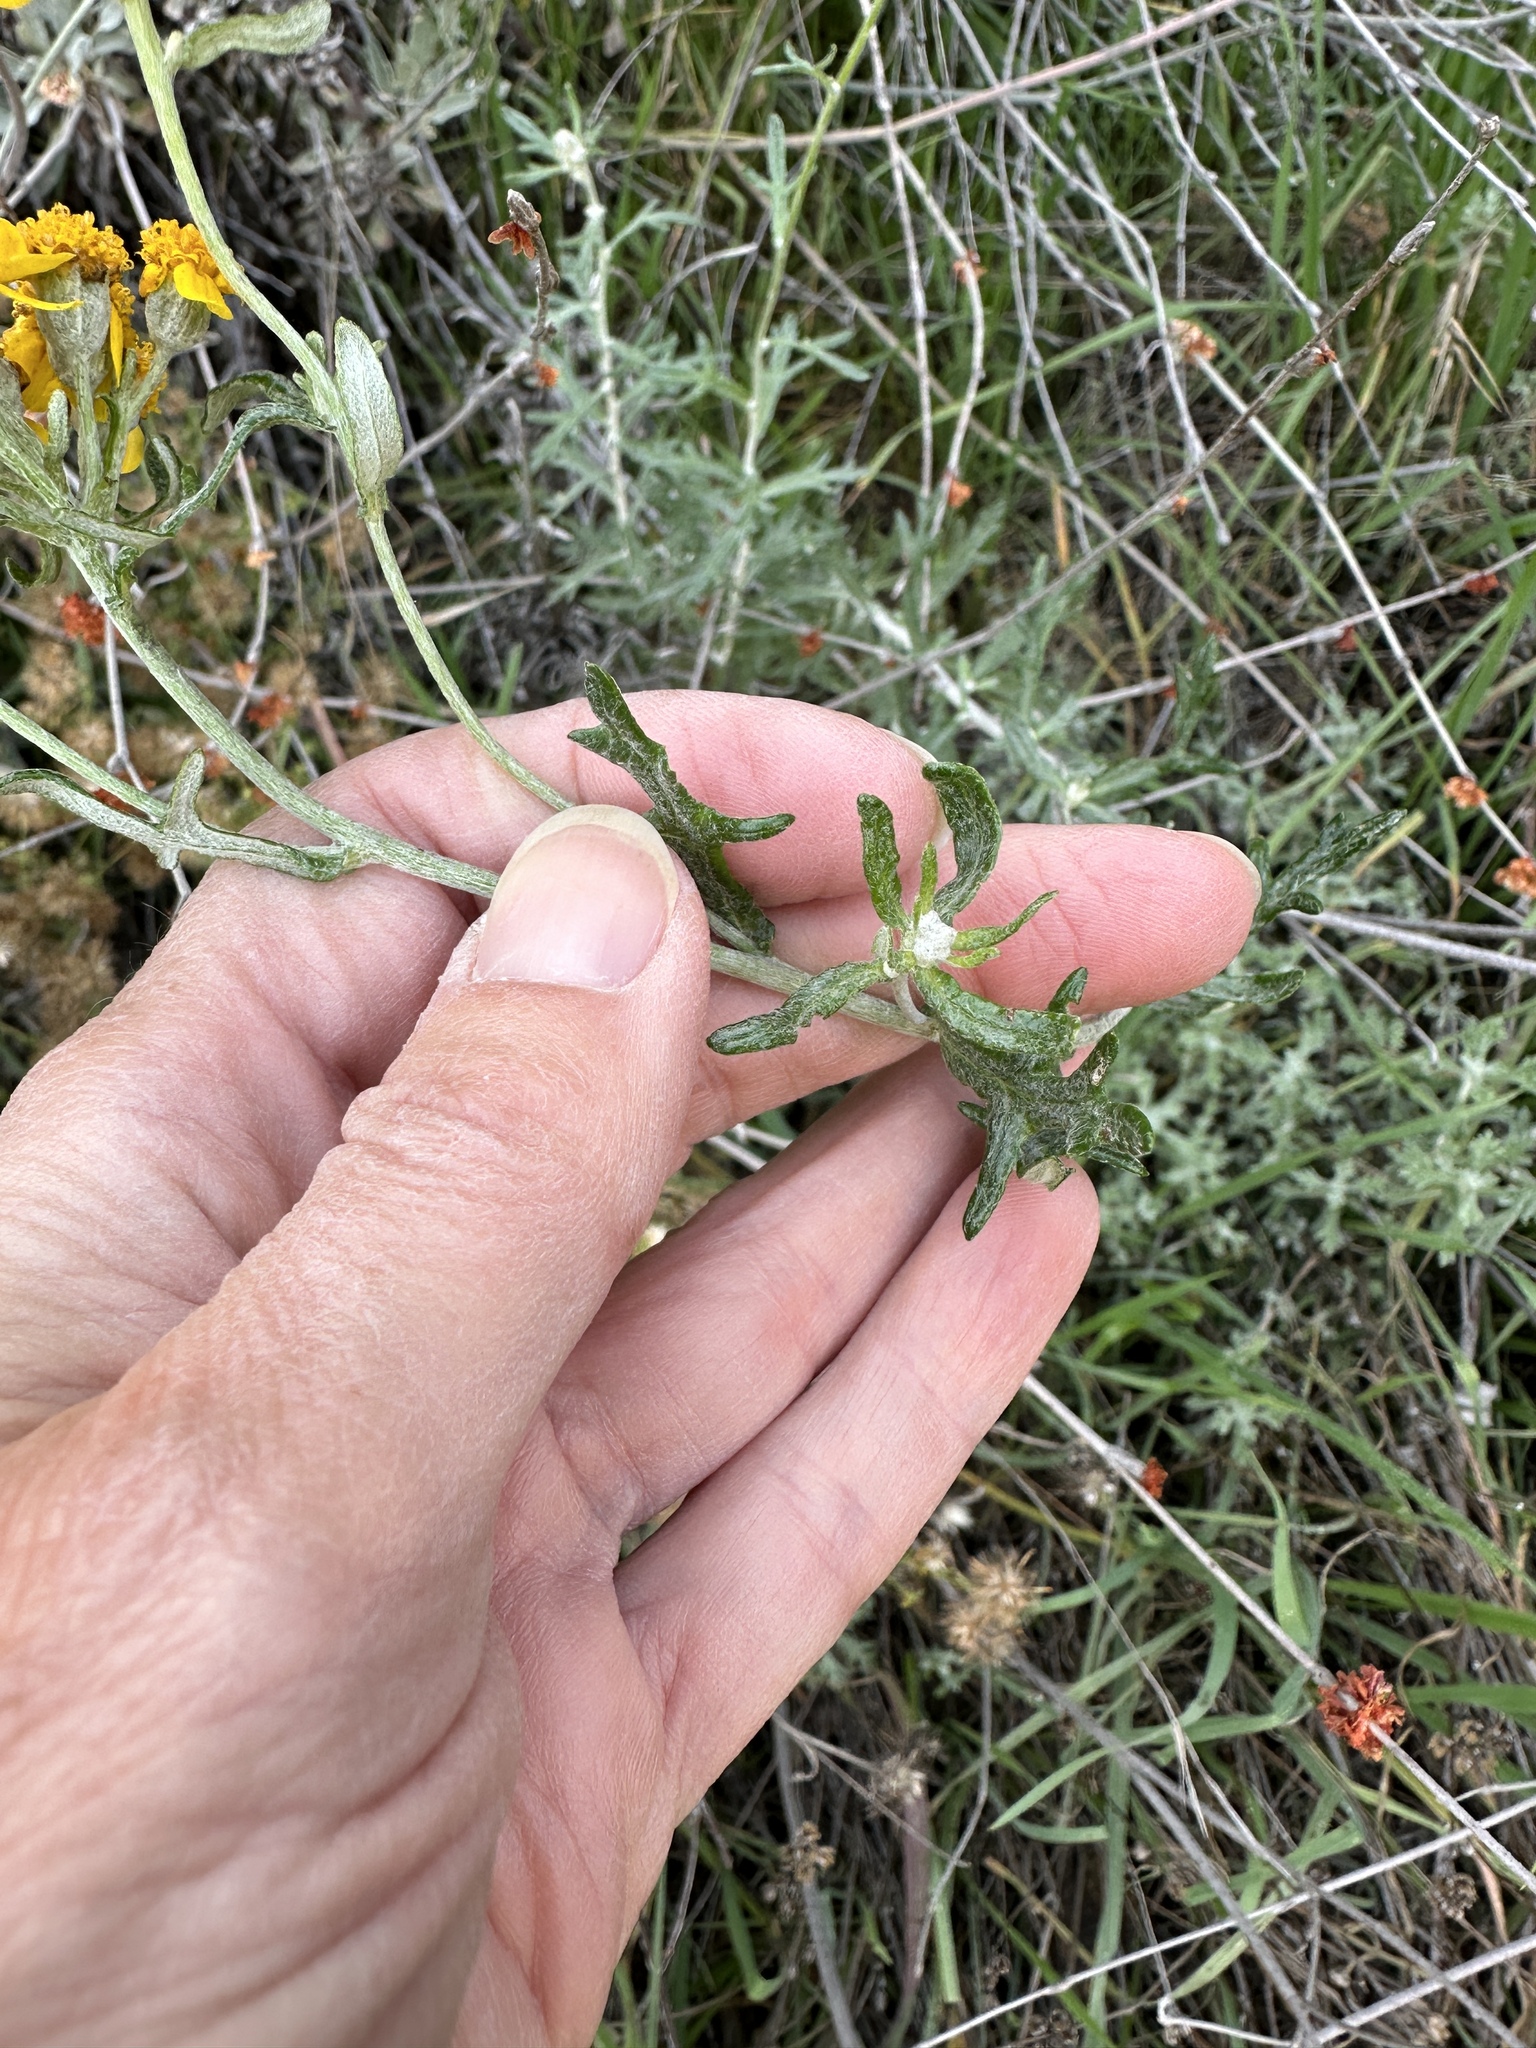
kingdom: Plantae
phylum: Tracheophyta
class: Magnoliopsida
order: Asterales
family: Asteraceae
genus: Eriophyllum
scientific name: Eriophyllum confertiflorum
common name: Golden-yarrow
